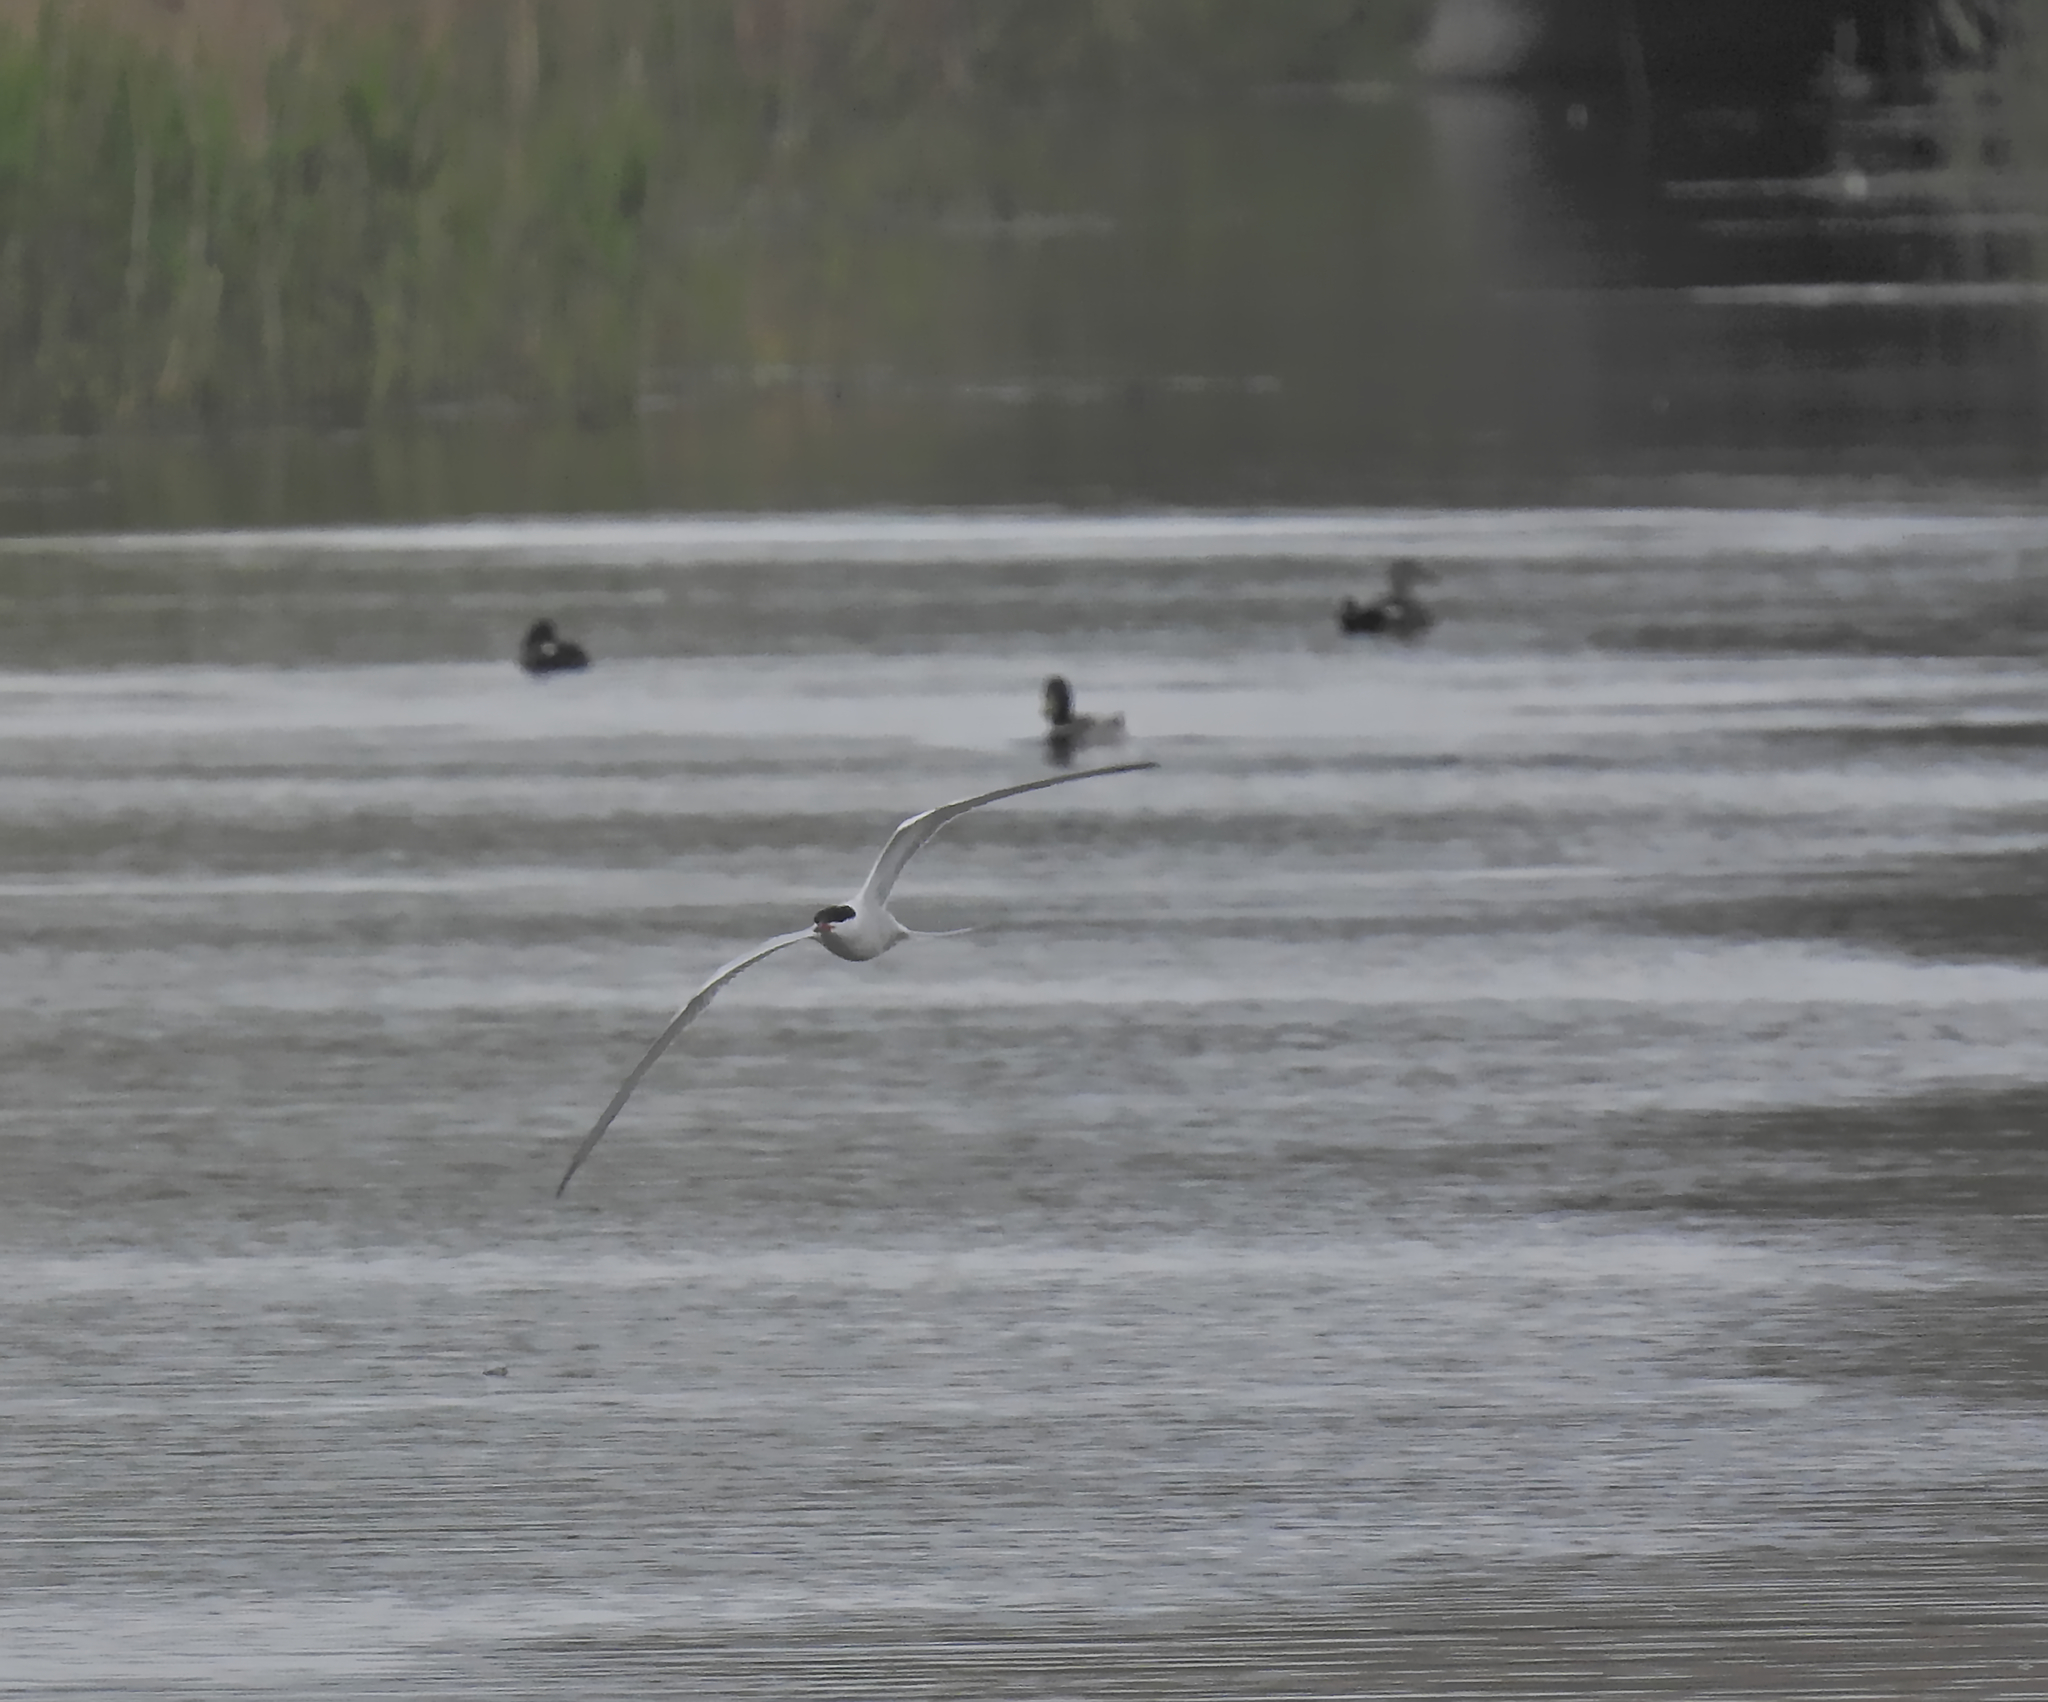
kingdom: Animalia
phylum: Chordata
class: Aves
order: Charadriiformes
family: Laridae
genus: Sterna
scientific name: Sterna hirundo
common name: Common tern
